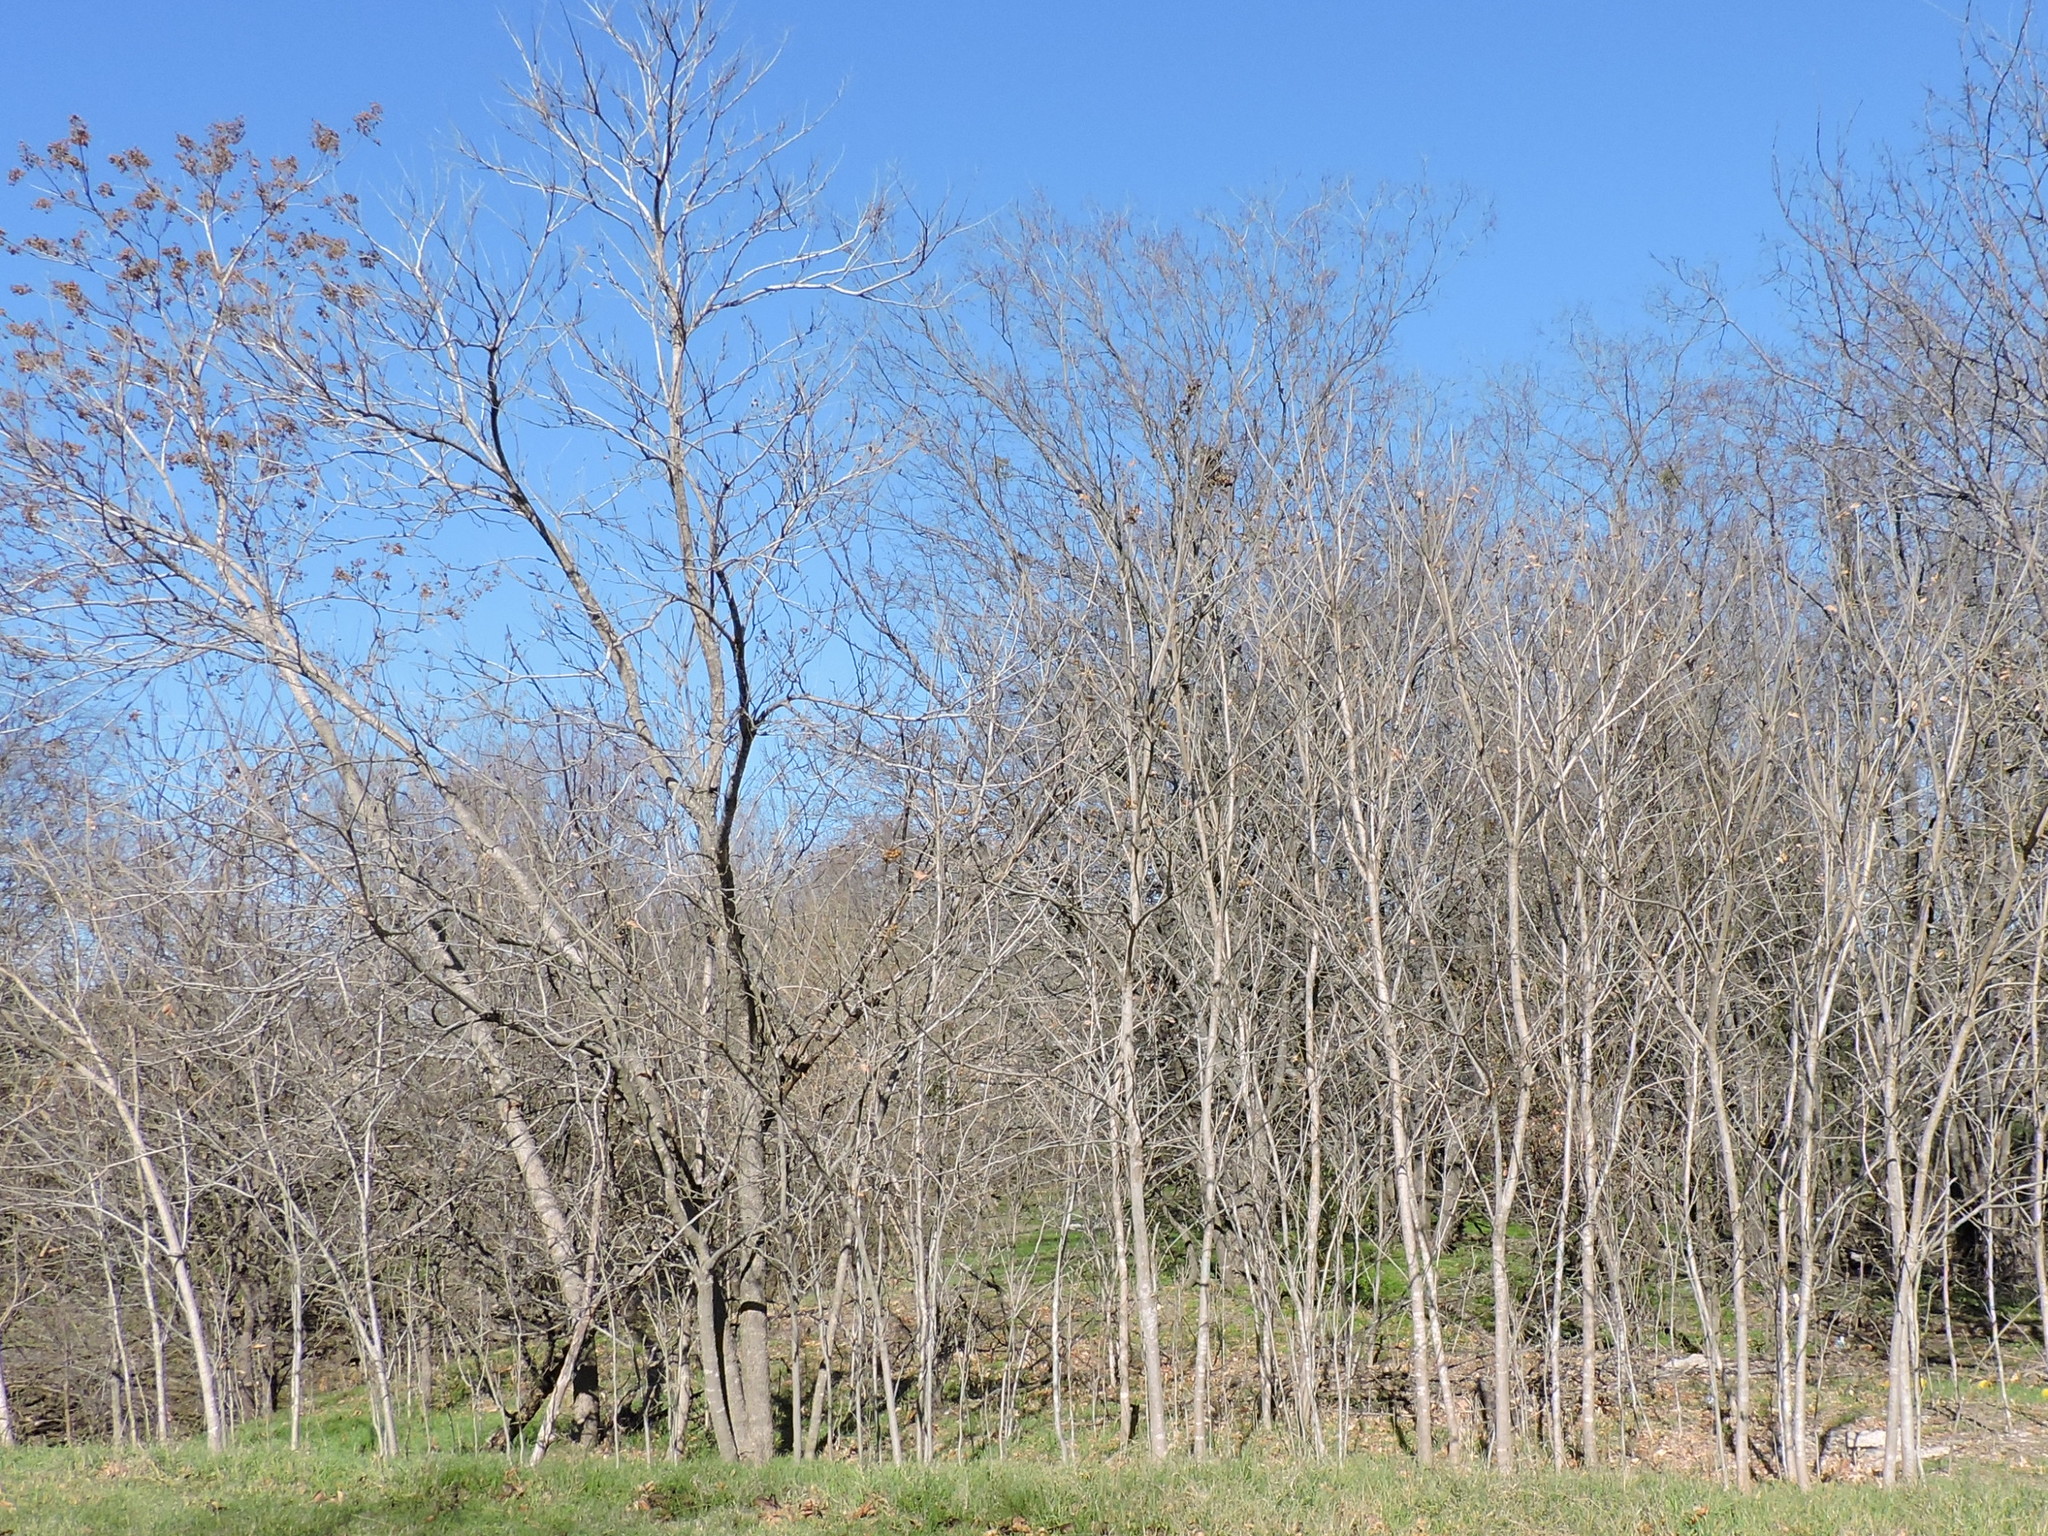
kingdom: Plantae
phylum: Tracheophyta
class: Magnoliopsida
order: Sapindales
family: Sapindaceae
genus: Sapindus
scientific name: Sapindus drummondii
